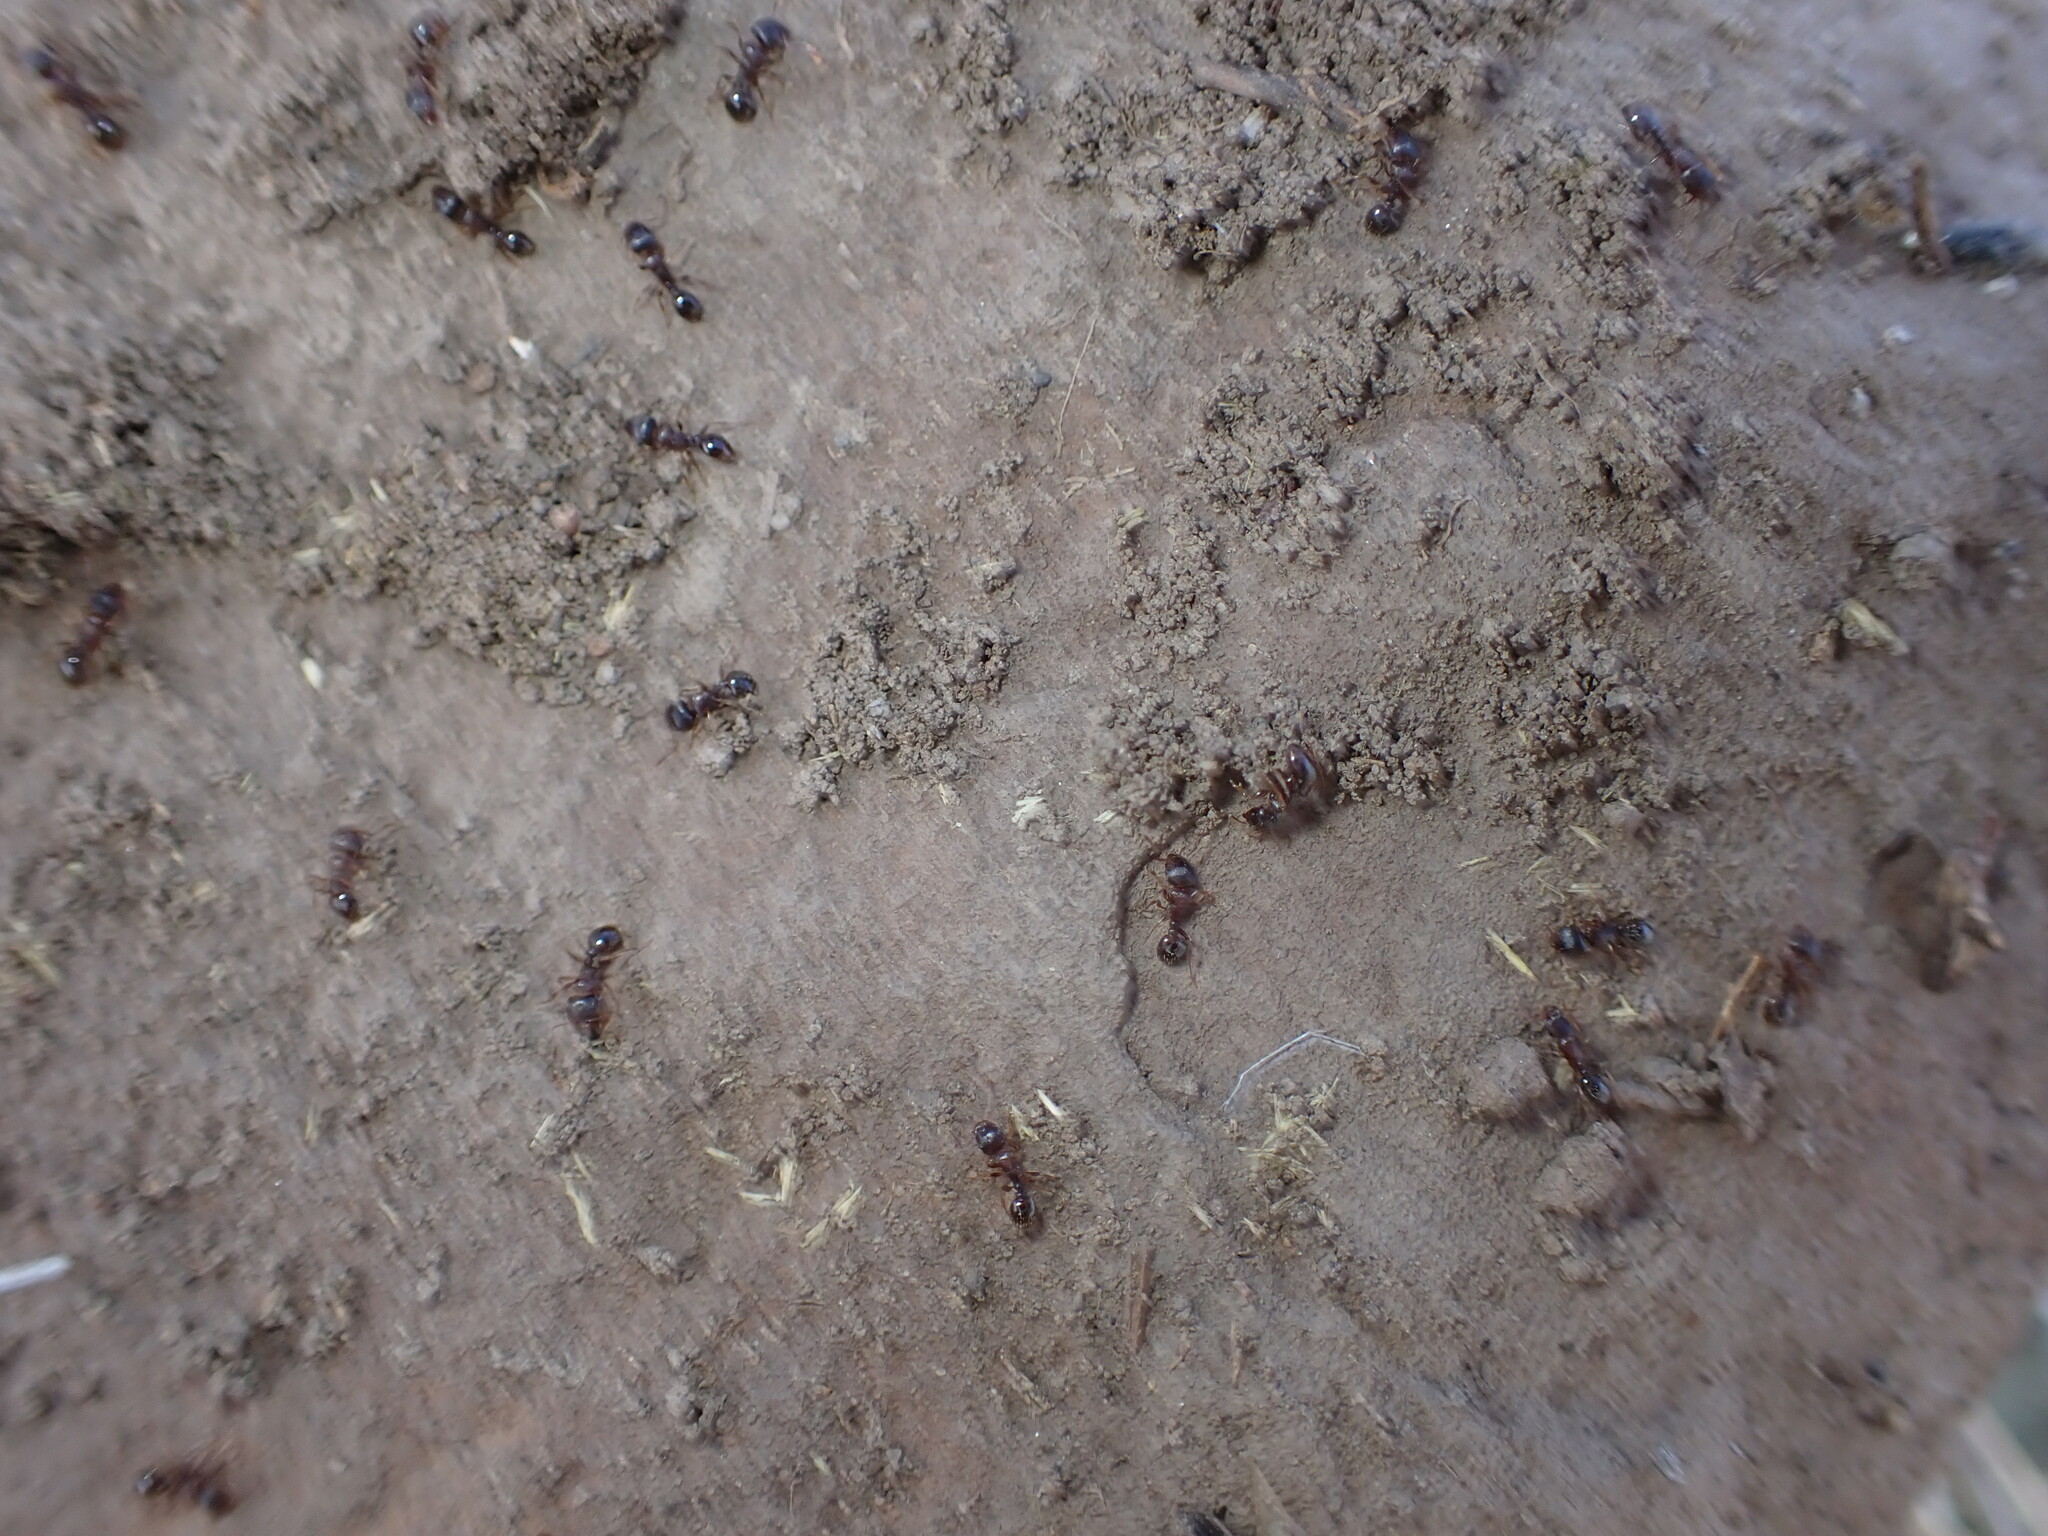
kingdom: Animalia
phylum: Arthropoda
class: Insecta
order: Hymenoptera
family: Formicidae
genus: Tetramorium
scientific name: Tetramorium immigrans
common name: Pavement ant
